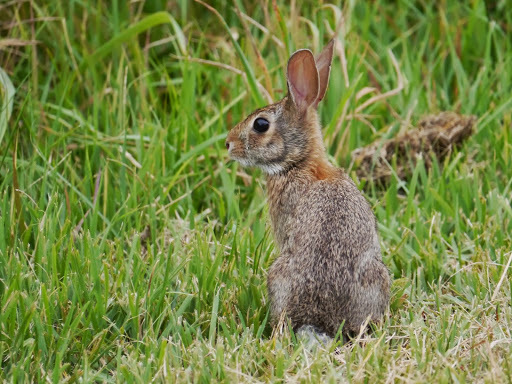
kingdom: Animalia
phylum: Chordata
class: Mammalia
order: Lagomorpha
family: Leporidae
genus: Sylvilagus
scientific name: Sylvilagus floridanus
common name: Eastern cottontail
